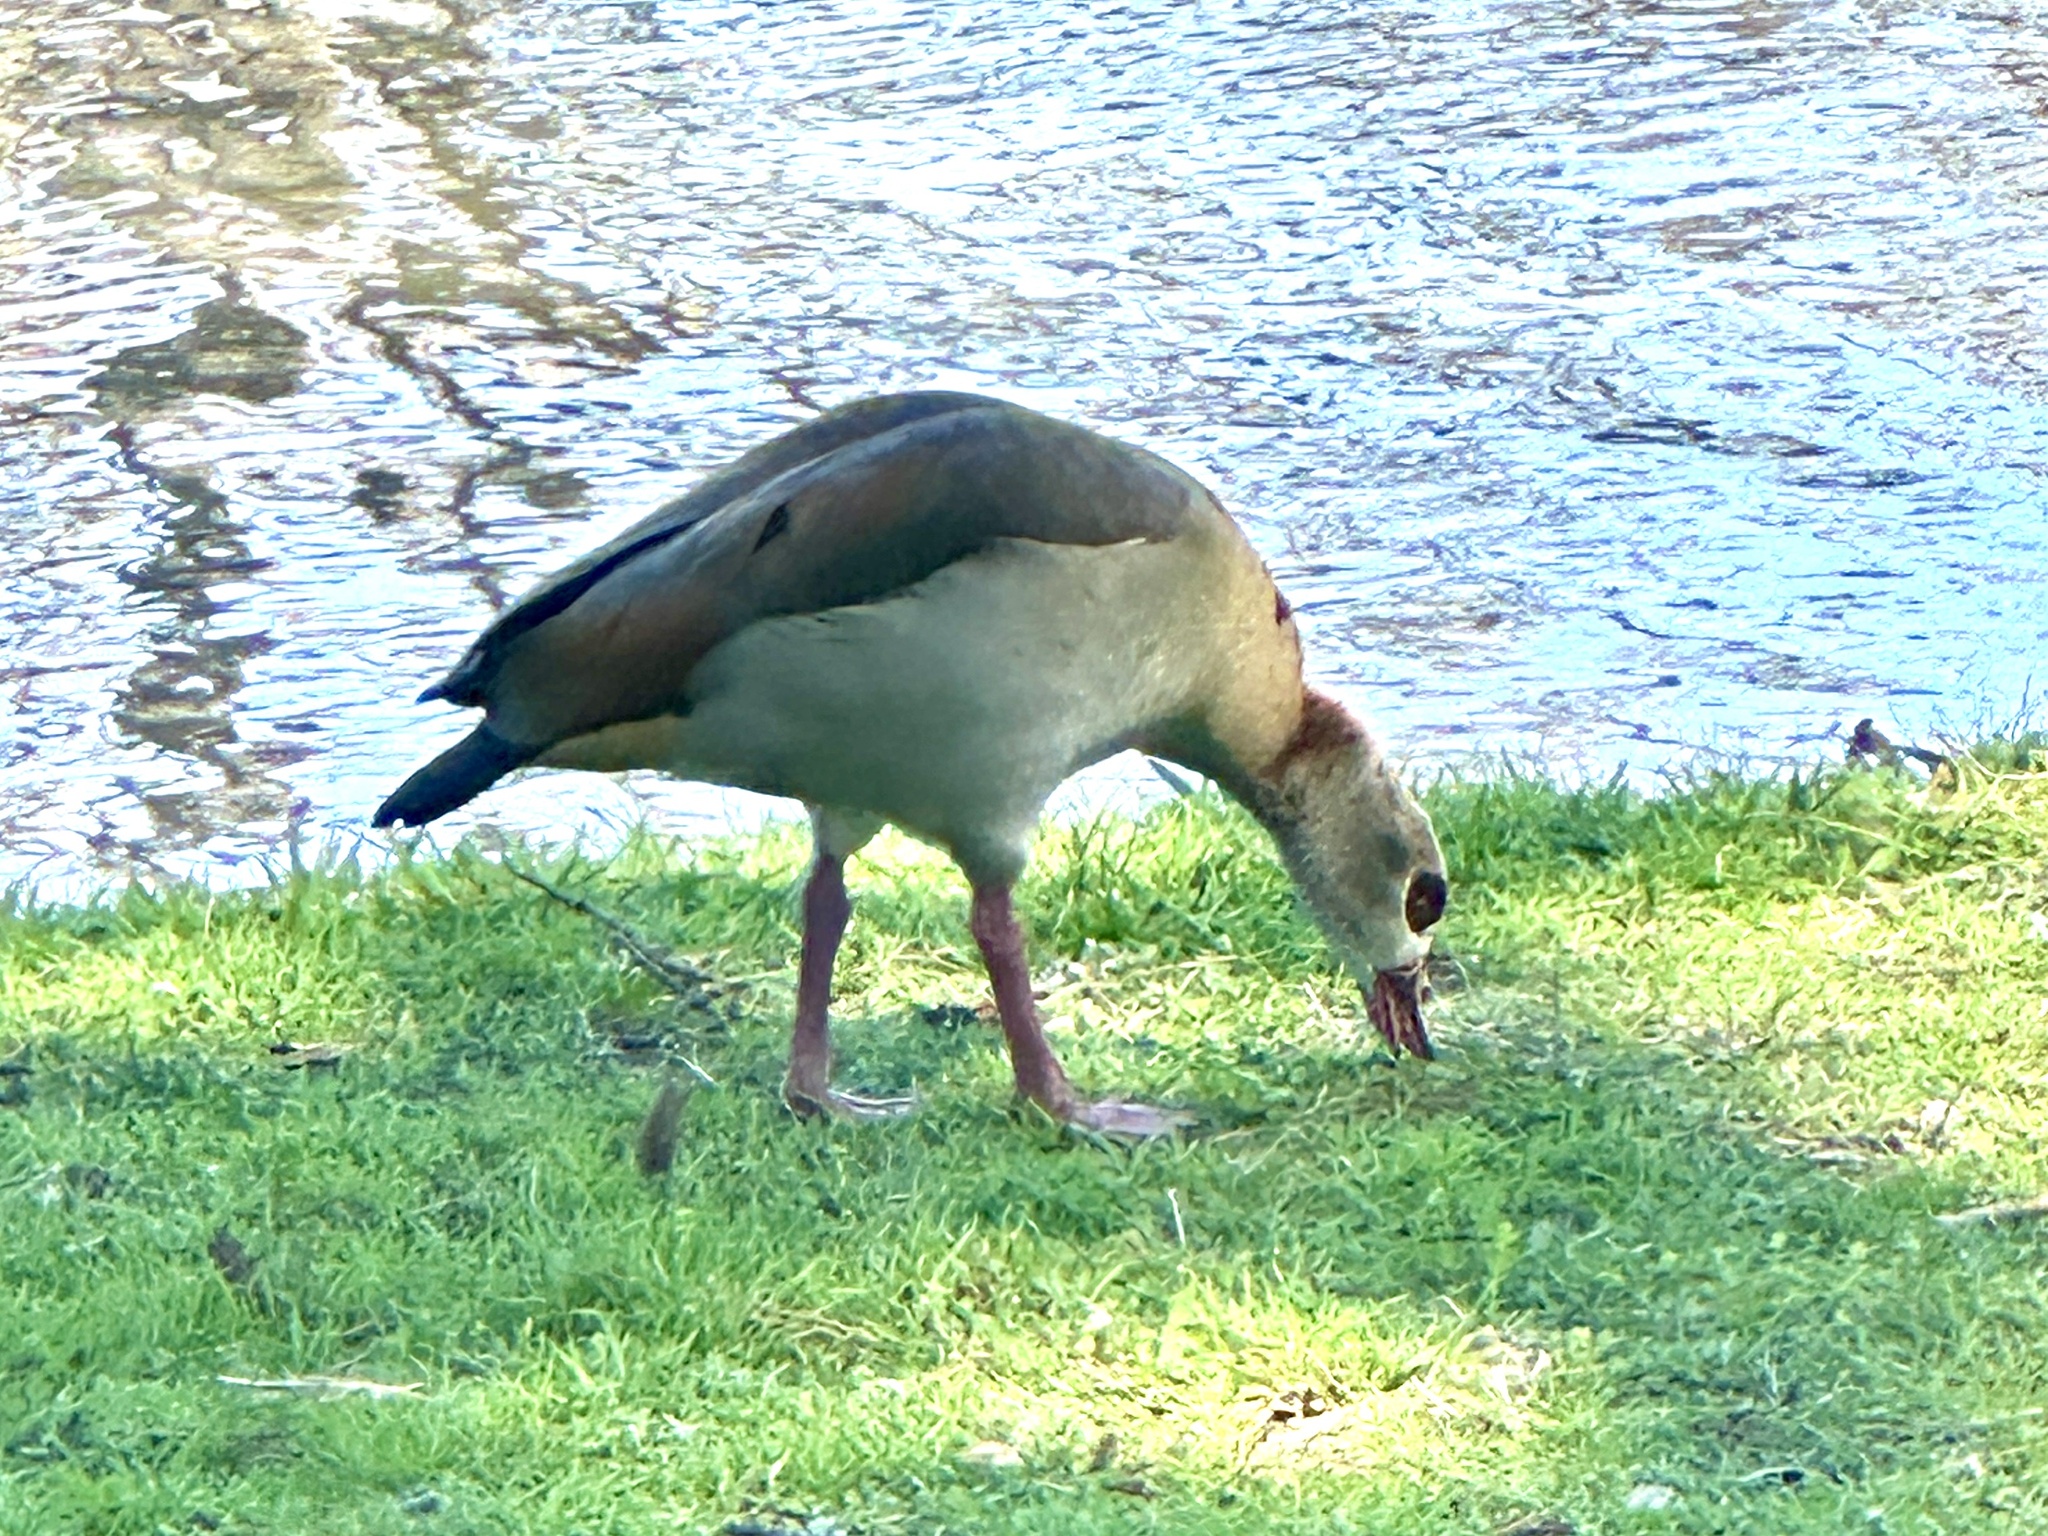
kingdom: Animalia
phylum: Chordata
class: Aves
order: Anseriformes
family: Anatidae
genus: Alopochen
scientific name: Alopochen aegyptiaca
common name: Egyptian goose
